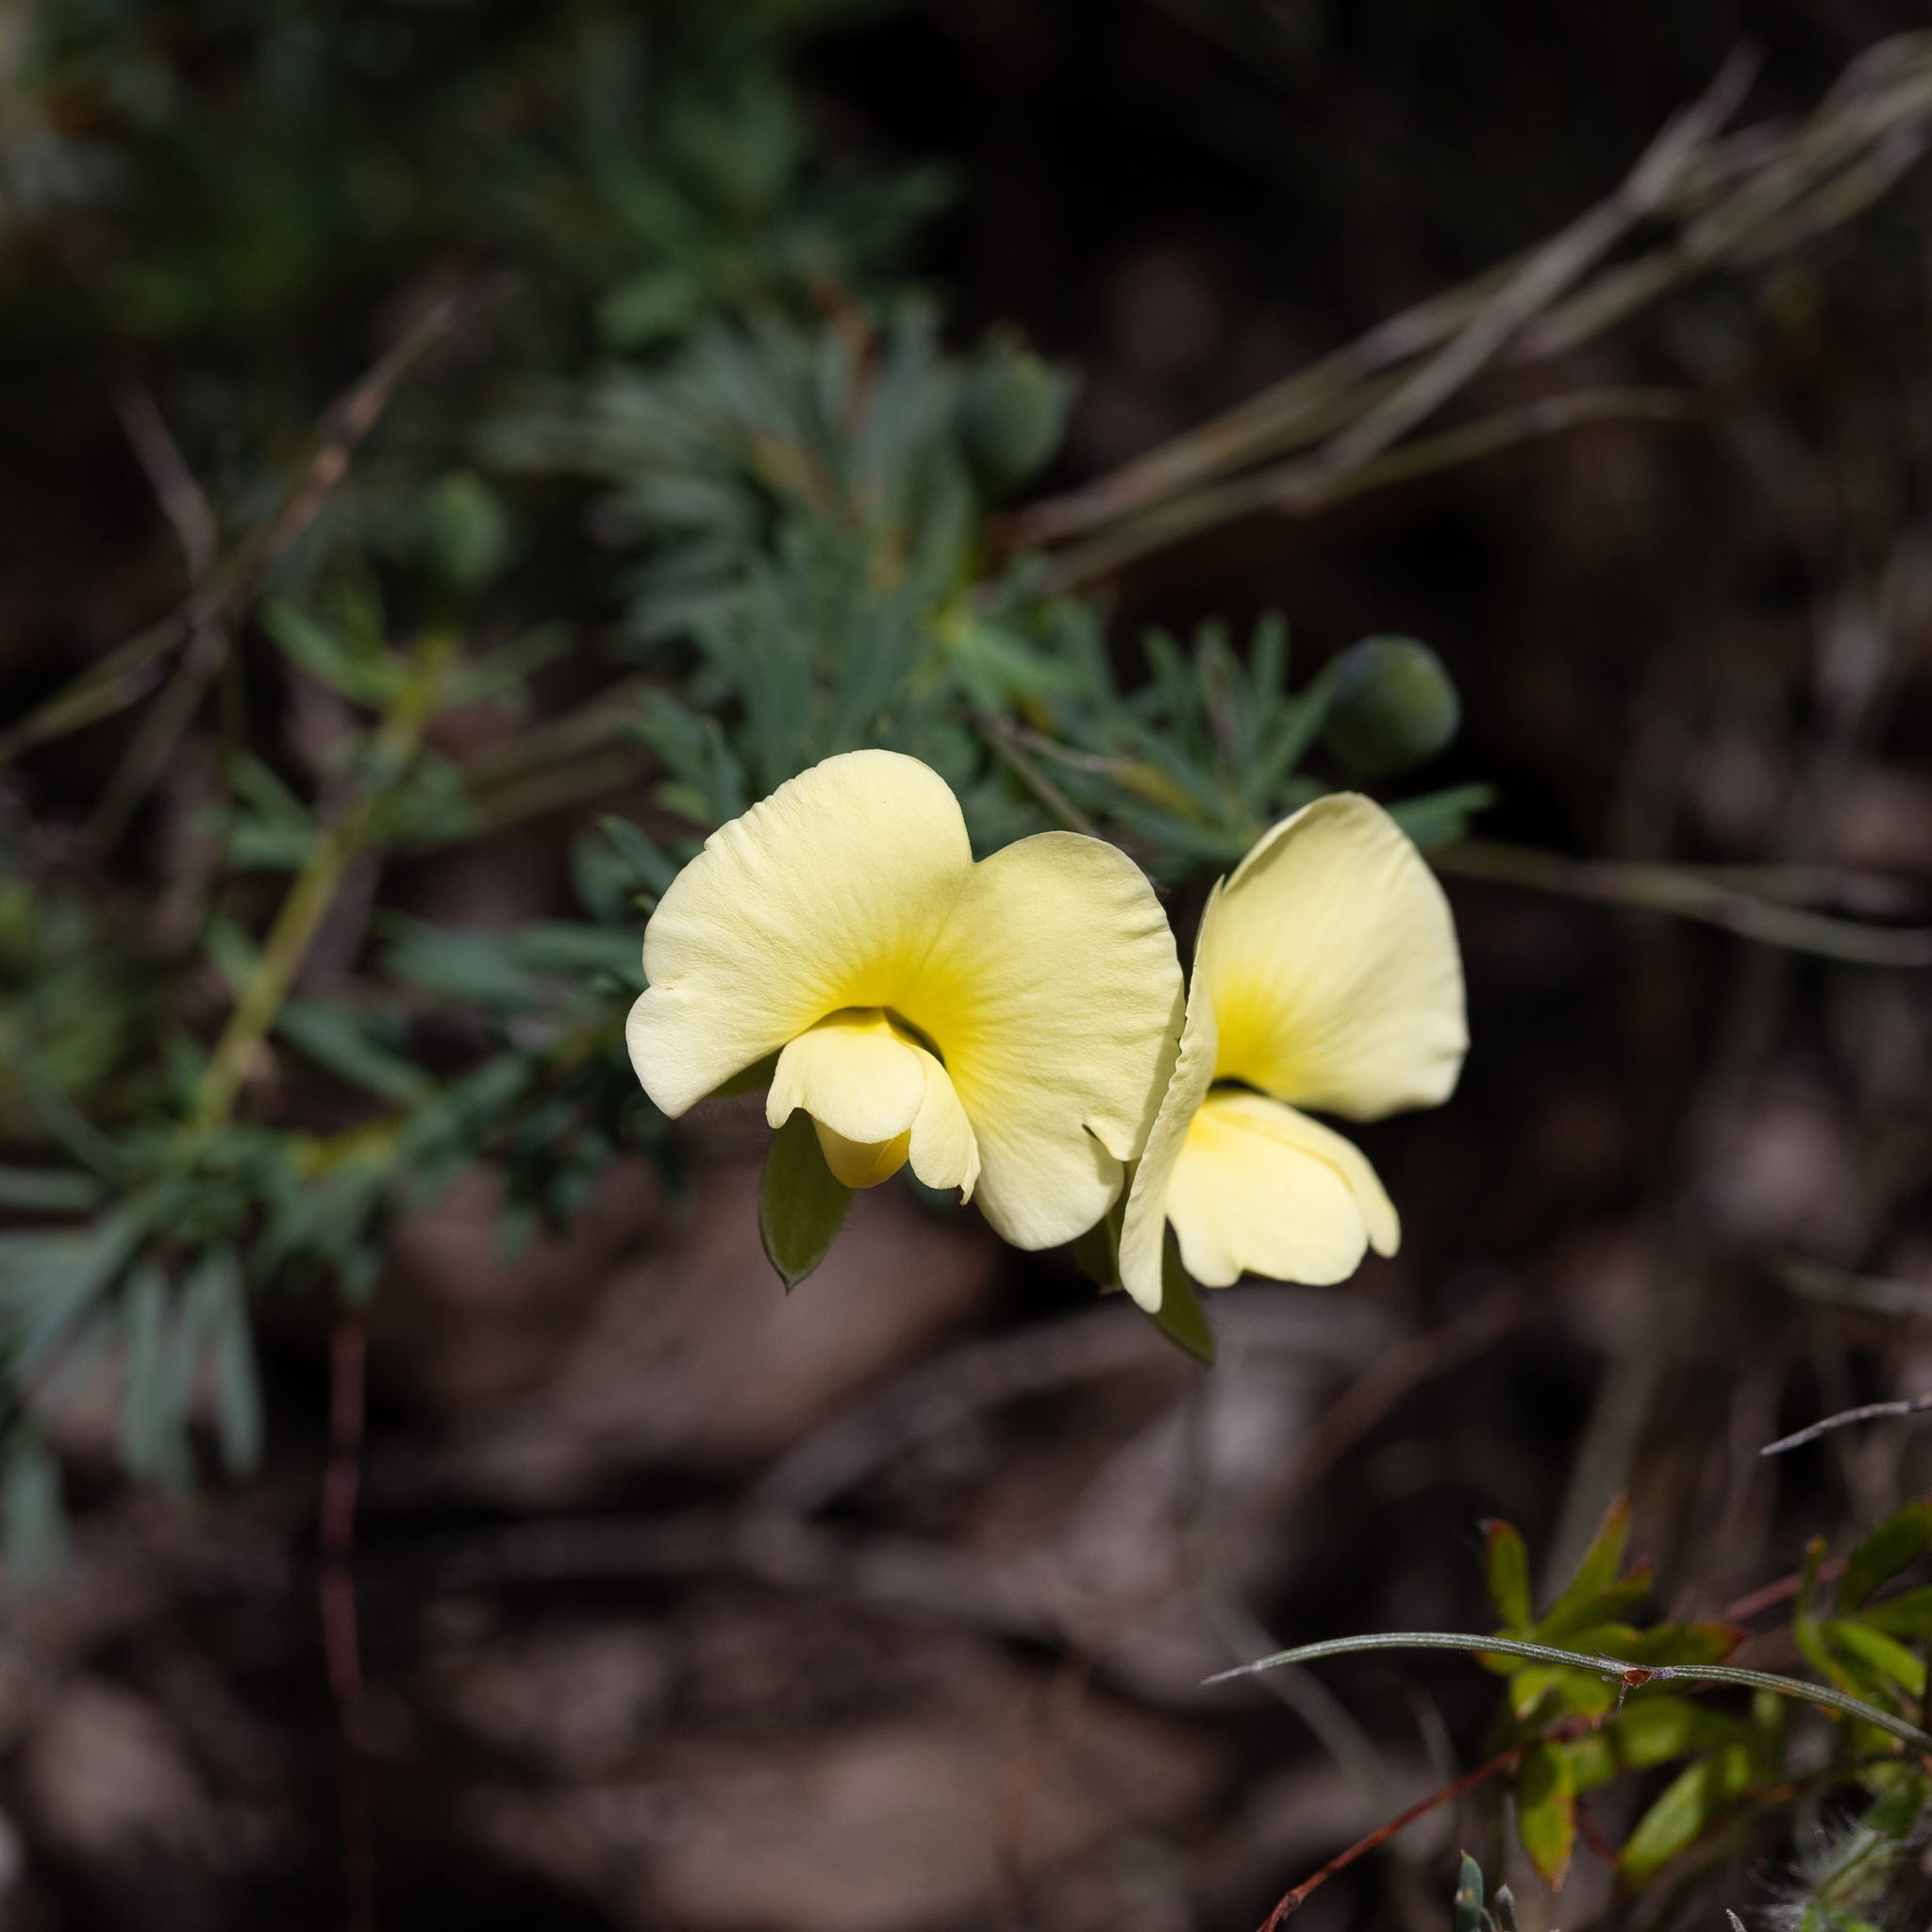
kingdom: Plantae
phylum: Tracheophyta
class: Magnoliopsida
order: Fabales
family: Fabaceae
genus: Gompholobium
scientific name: Gompholobium ecostatum
